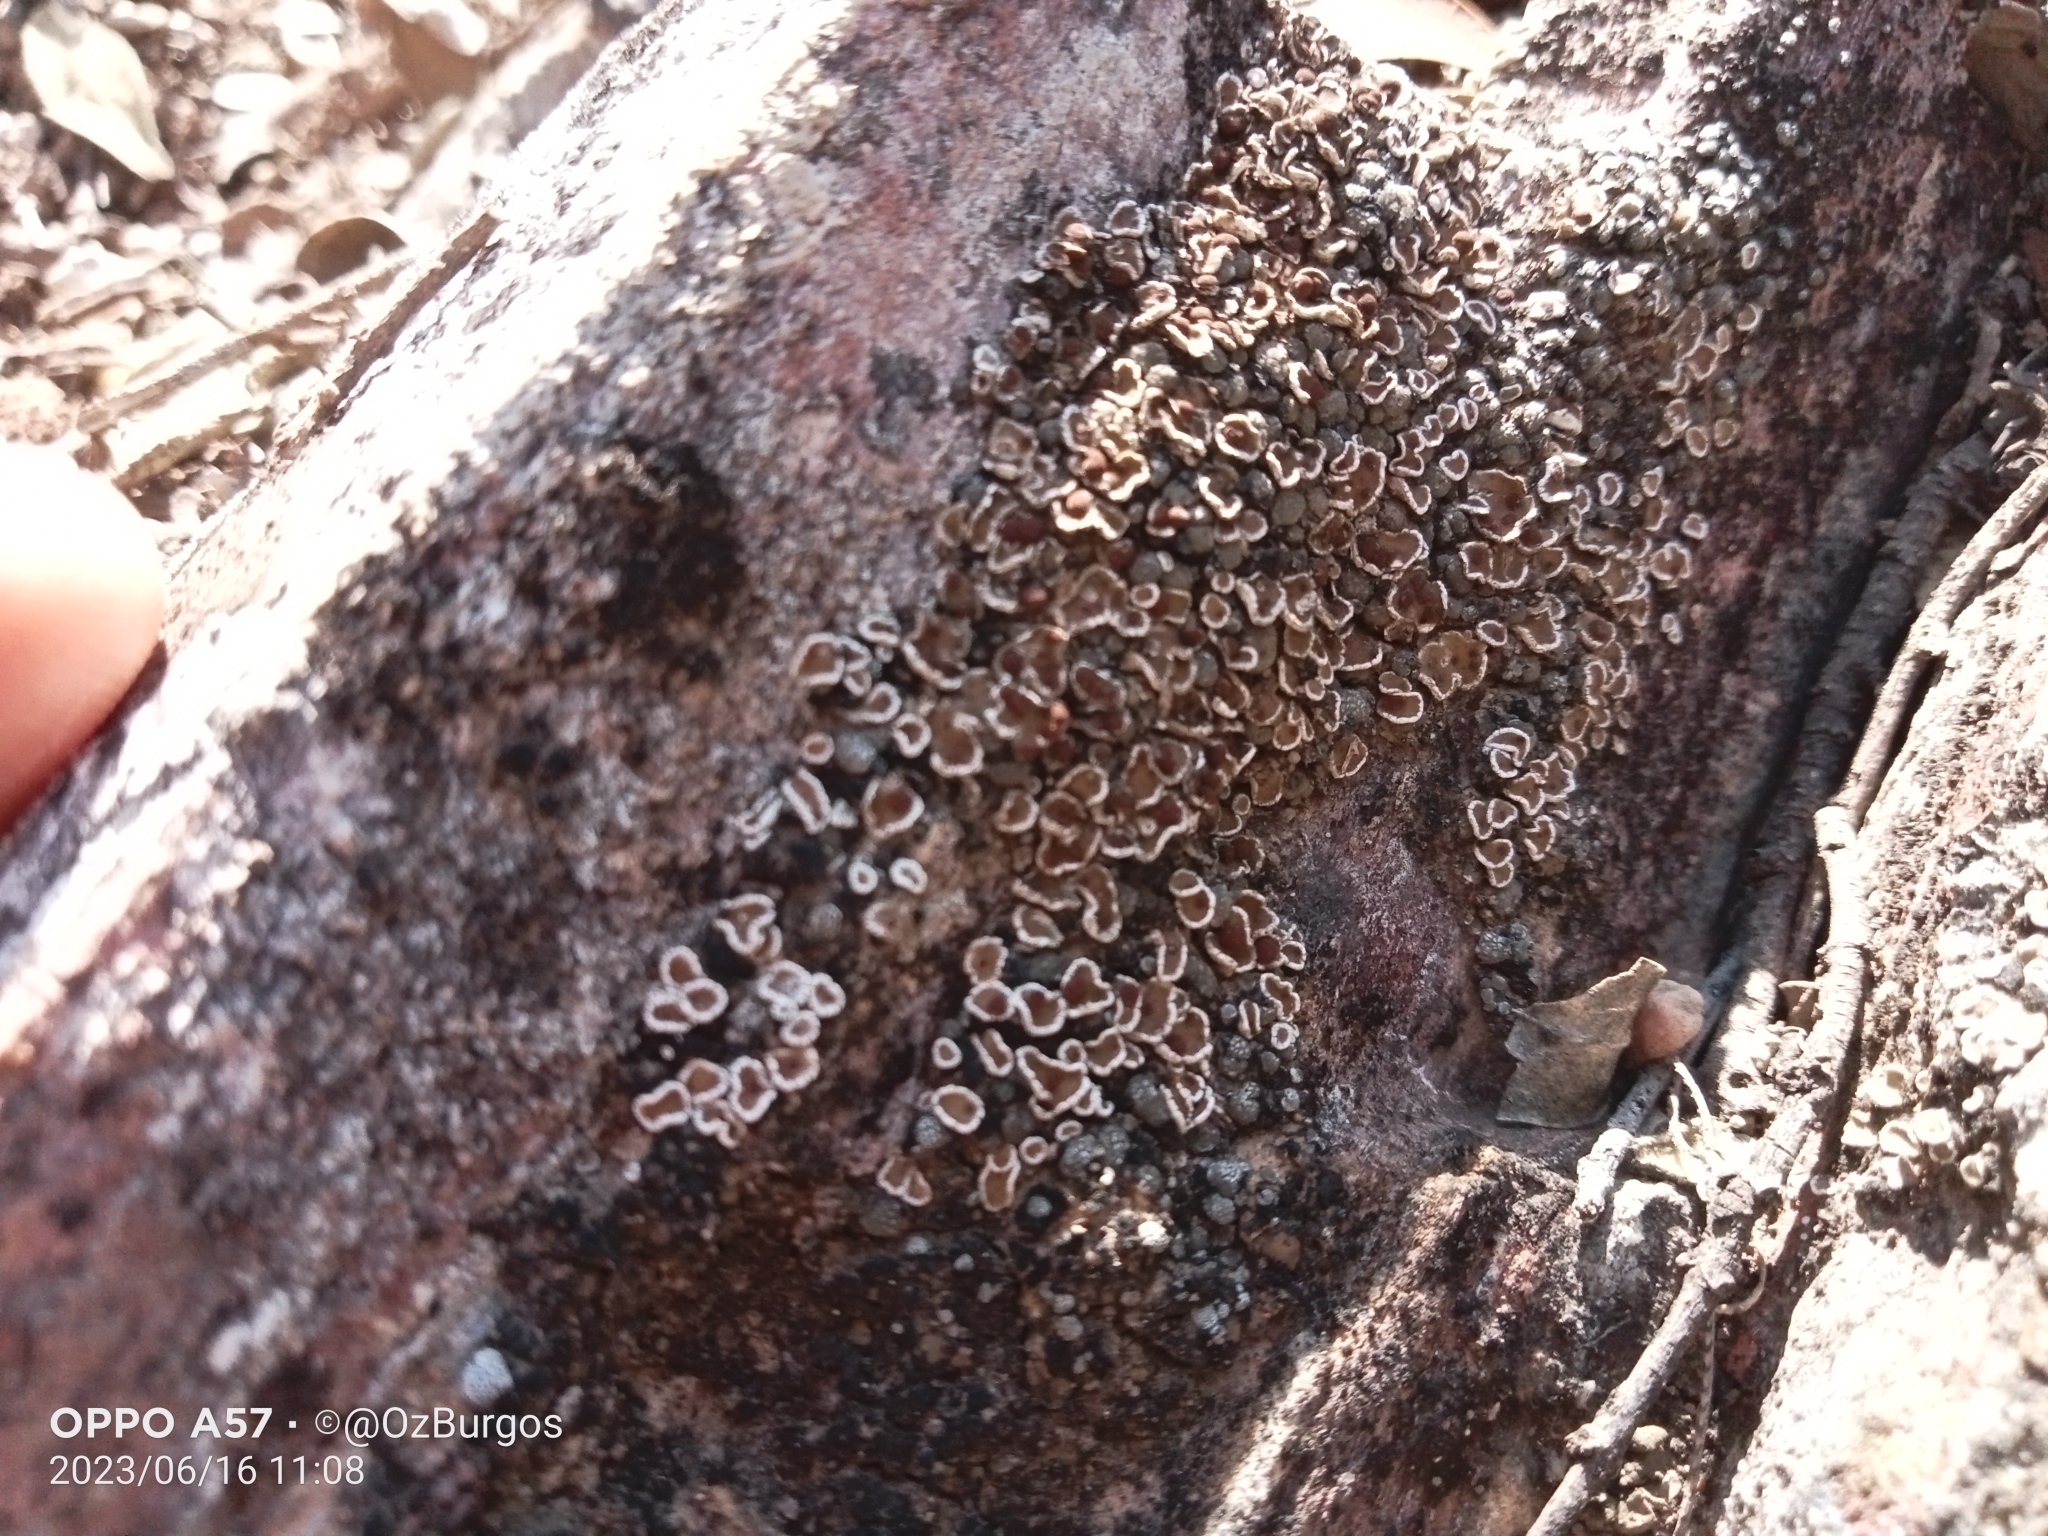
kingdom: Fungi
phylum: Ascomycota
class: Lecanoromycetes
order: Lecanorales
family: Psoraceae
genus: Psora
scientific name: Psora pseudorussellii
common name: Bordered scale lichen
